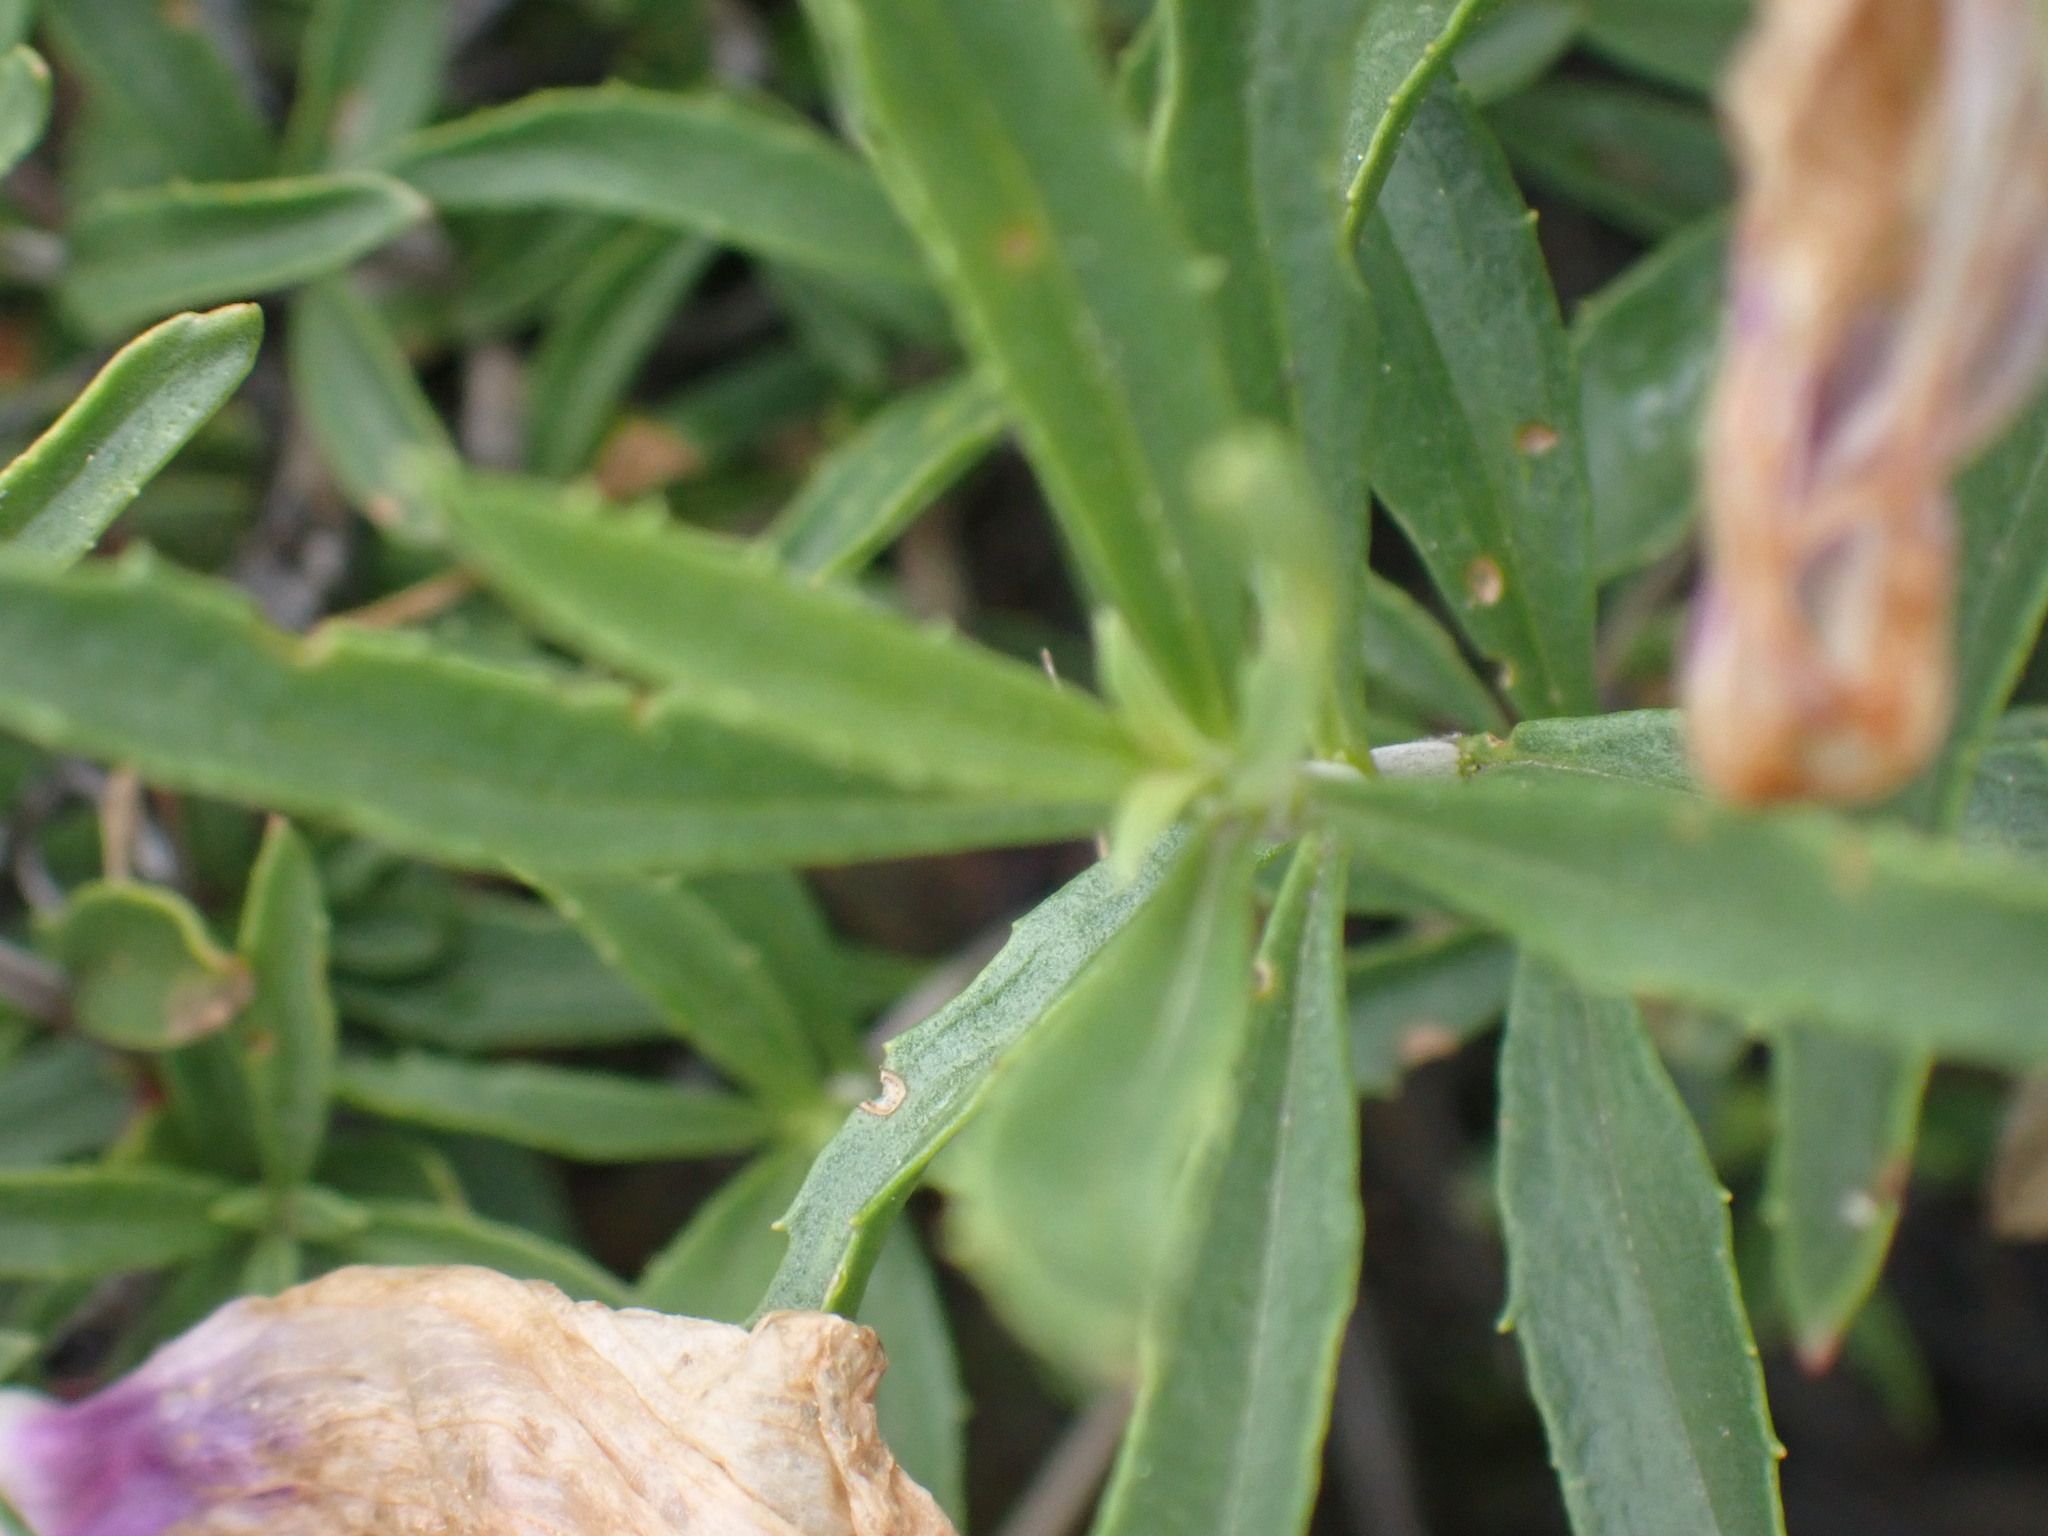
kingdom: Plantae
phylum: Tracheophyta
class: Magnoliopsida
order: Lamiales
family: Plantaginaceae
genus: Penstemon
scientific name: Penstemon fruticosus
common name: Bush penstemon
